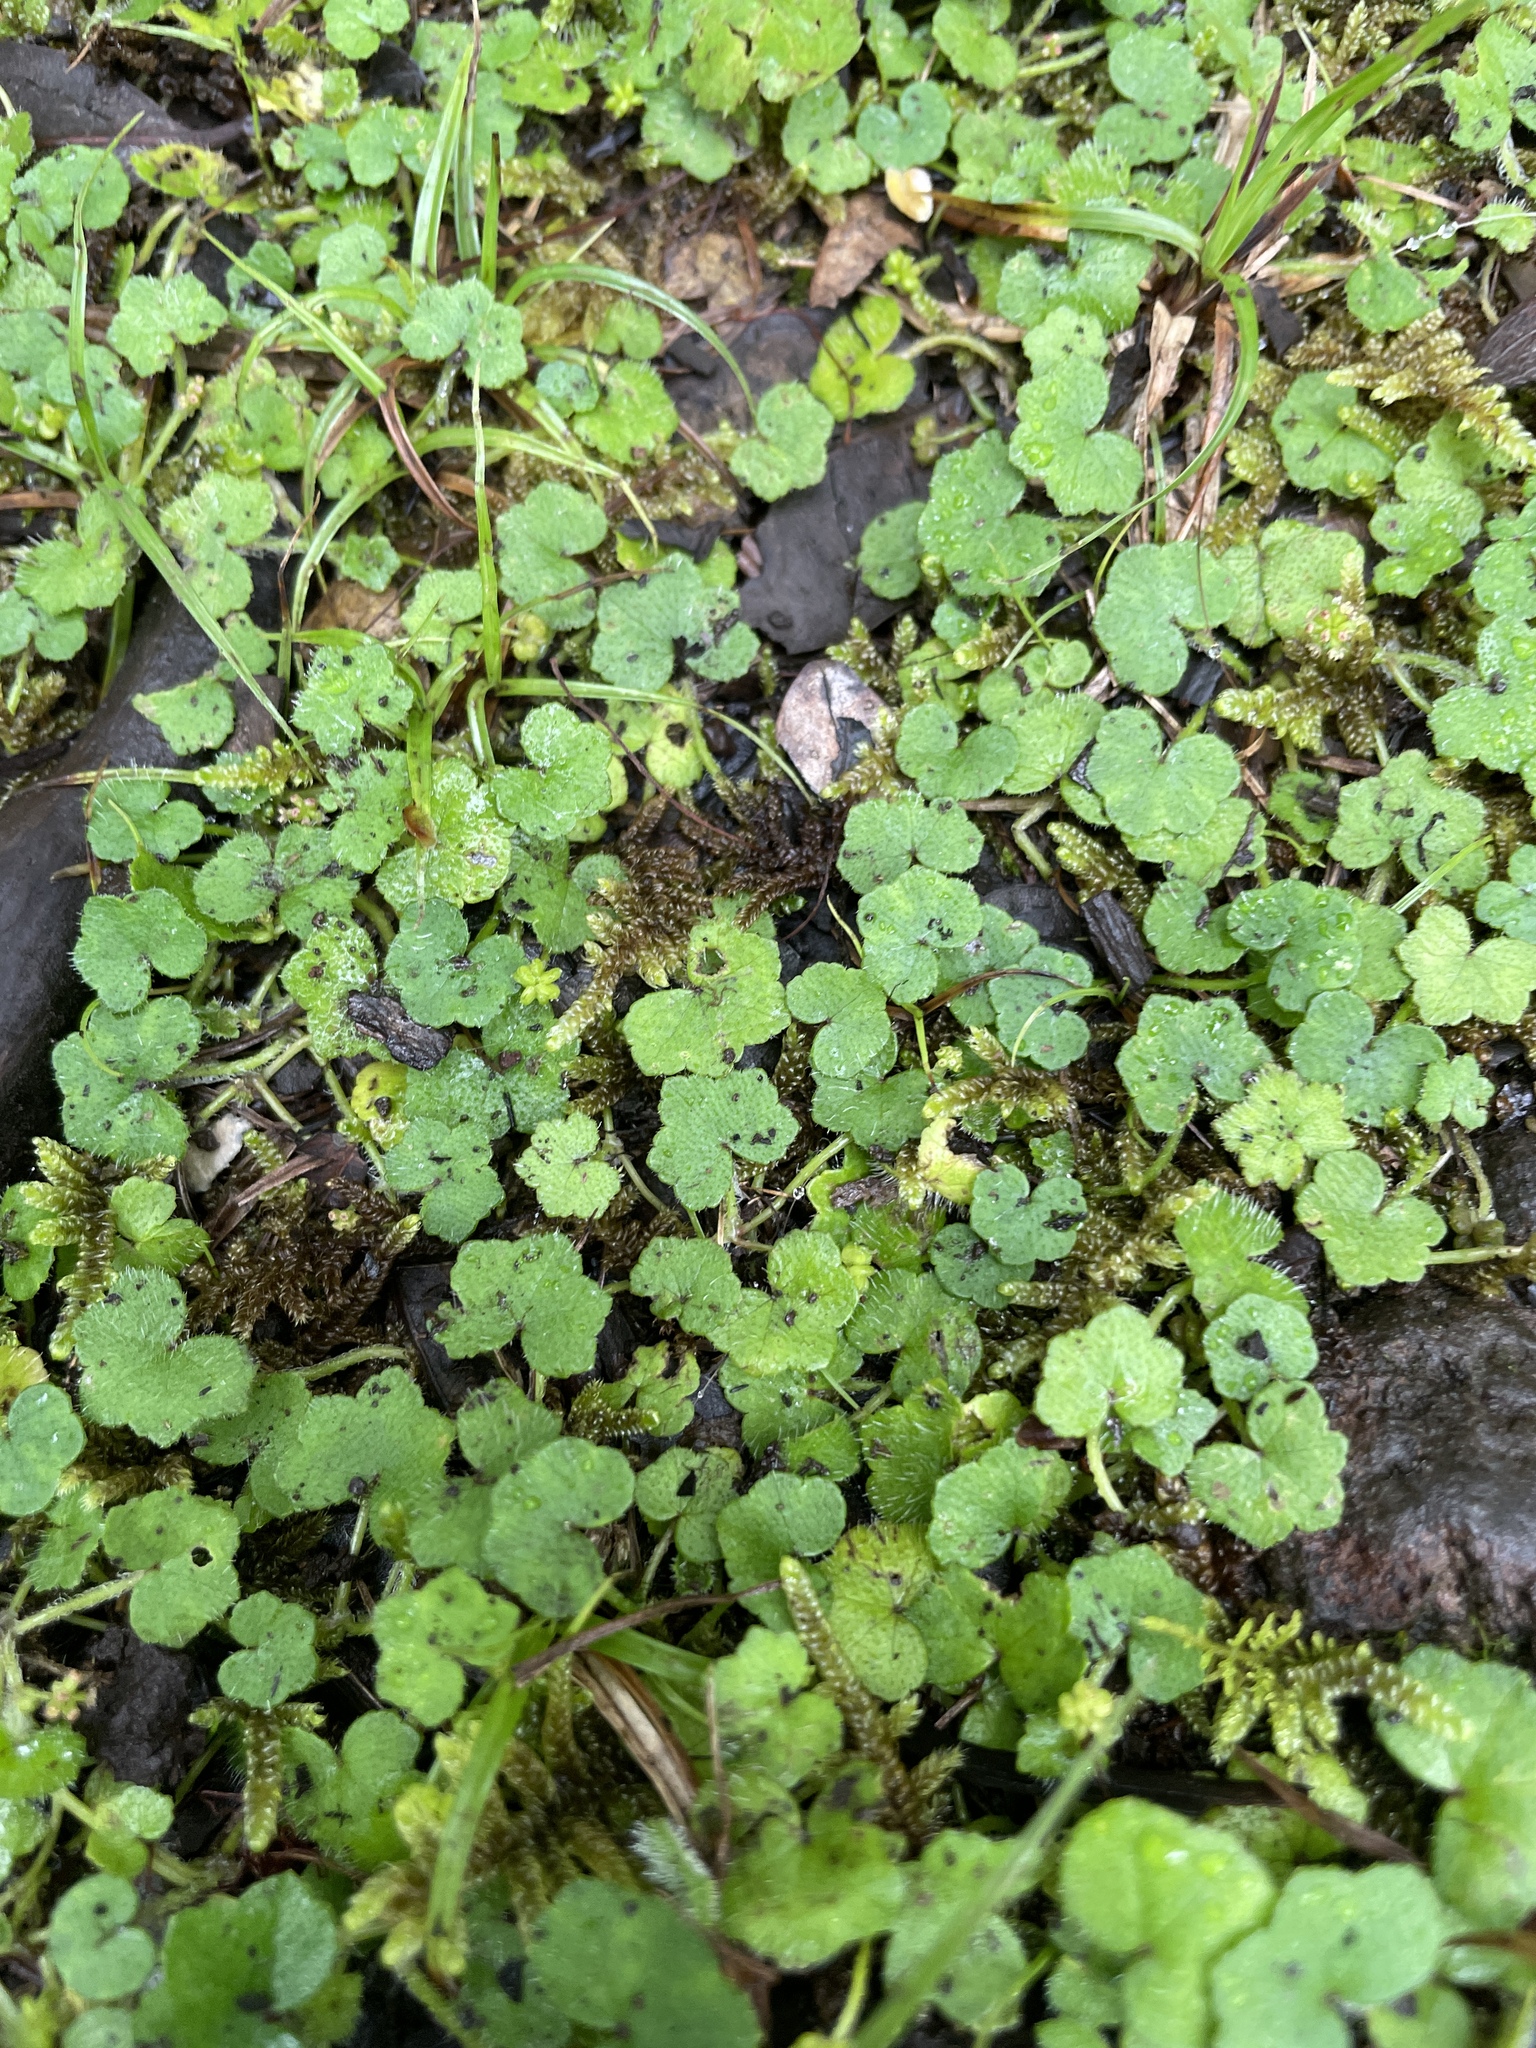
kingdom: Plantae
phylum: Tracheophyta
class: Magnoliopsida
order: Apiales
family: Araliaceae
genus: Hydrocotyle
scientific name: Hydrocotyle bowlesioides
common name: Largeleaf marshpennywort
